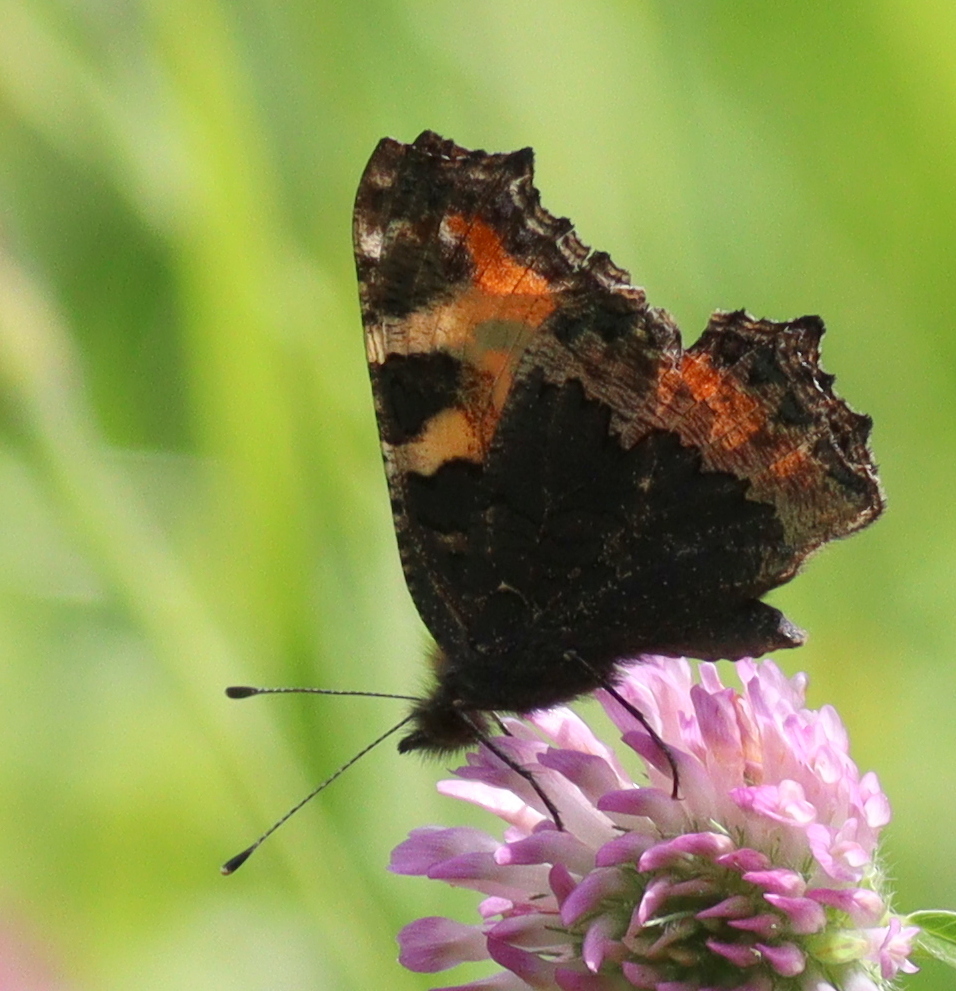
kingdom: Animalia
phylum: Arthropoda
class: Insecta
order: Lepidoptera
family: Nymphalidae
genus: Aglais
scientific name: Aglais urticae
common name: Small tortoiseshell
